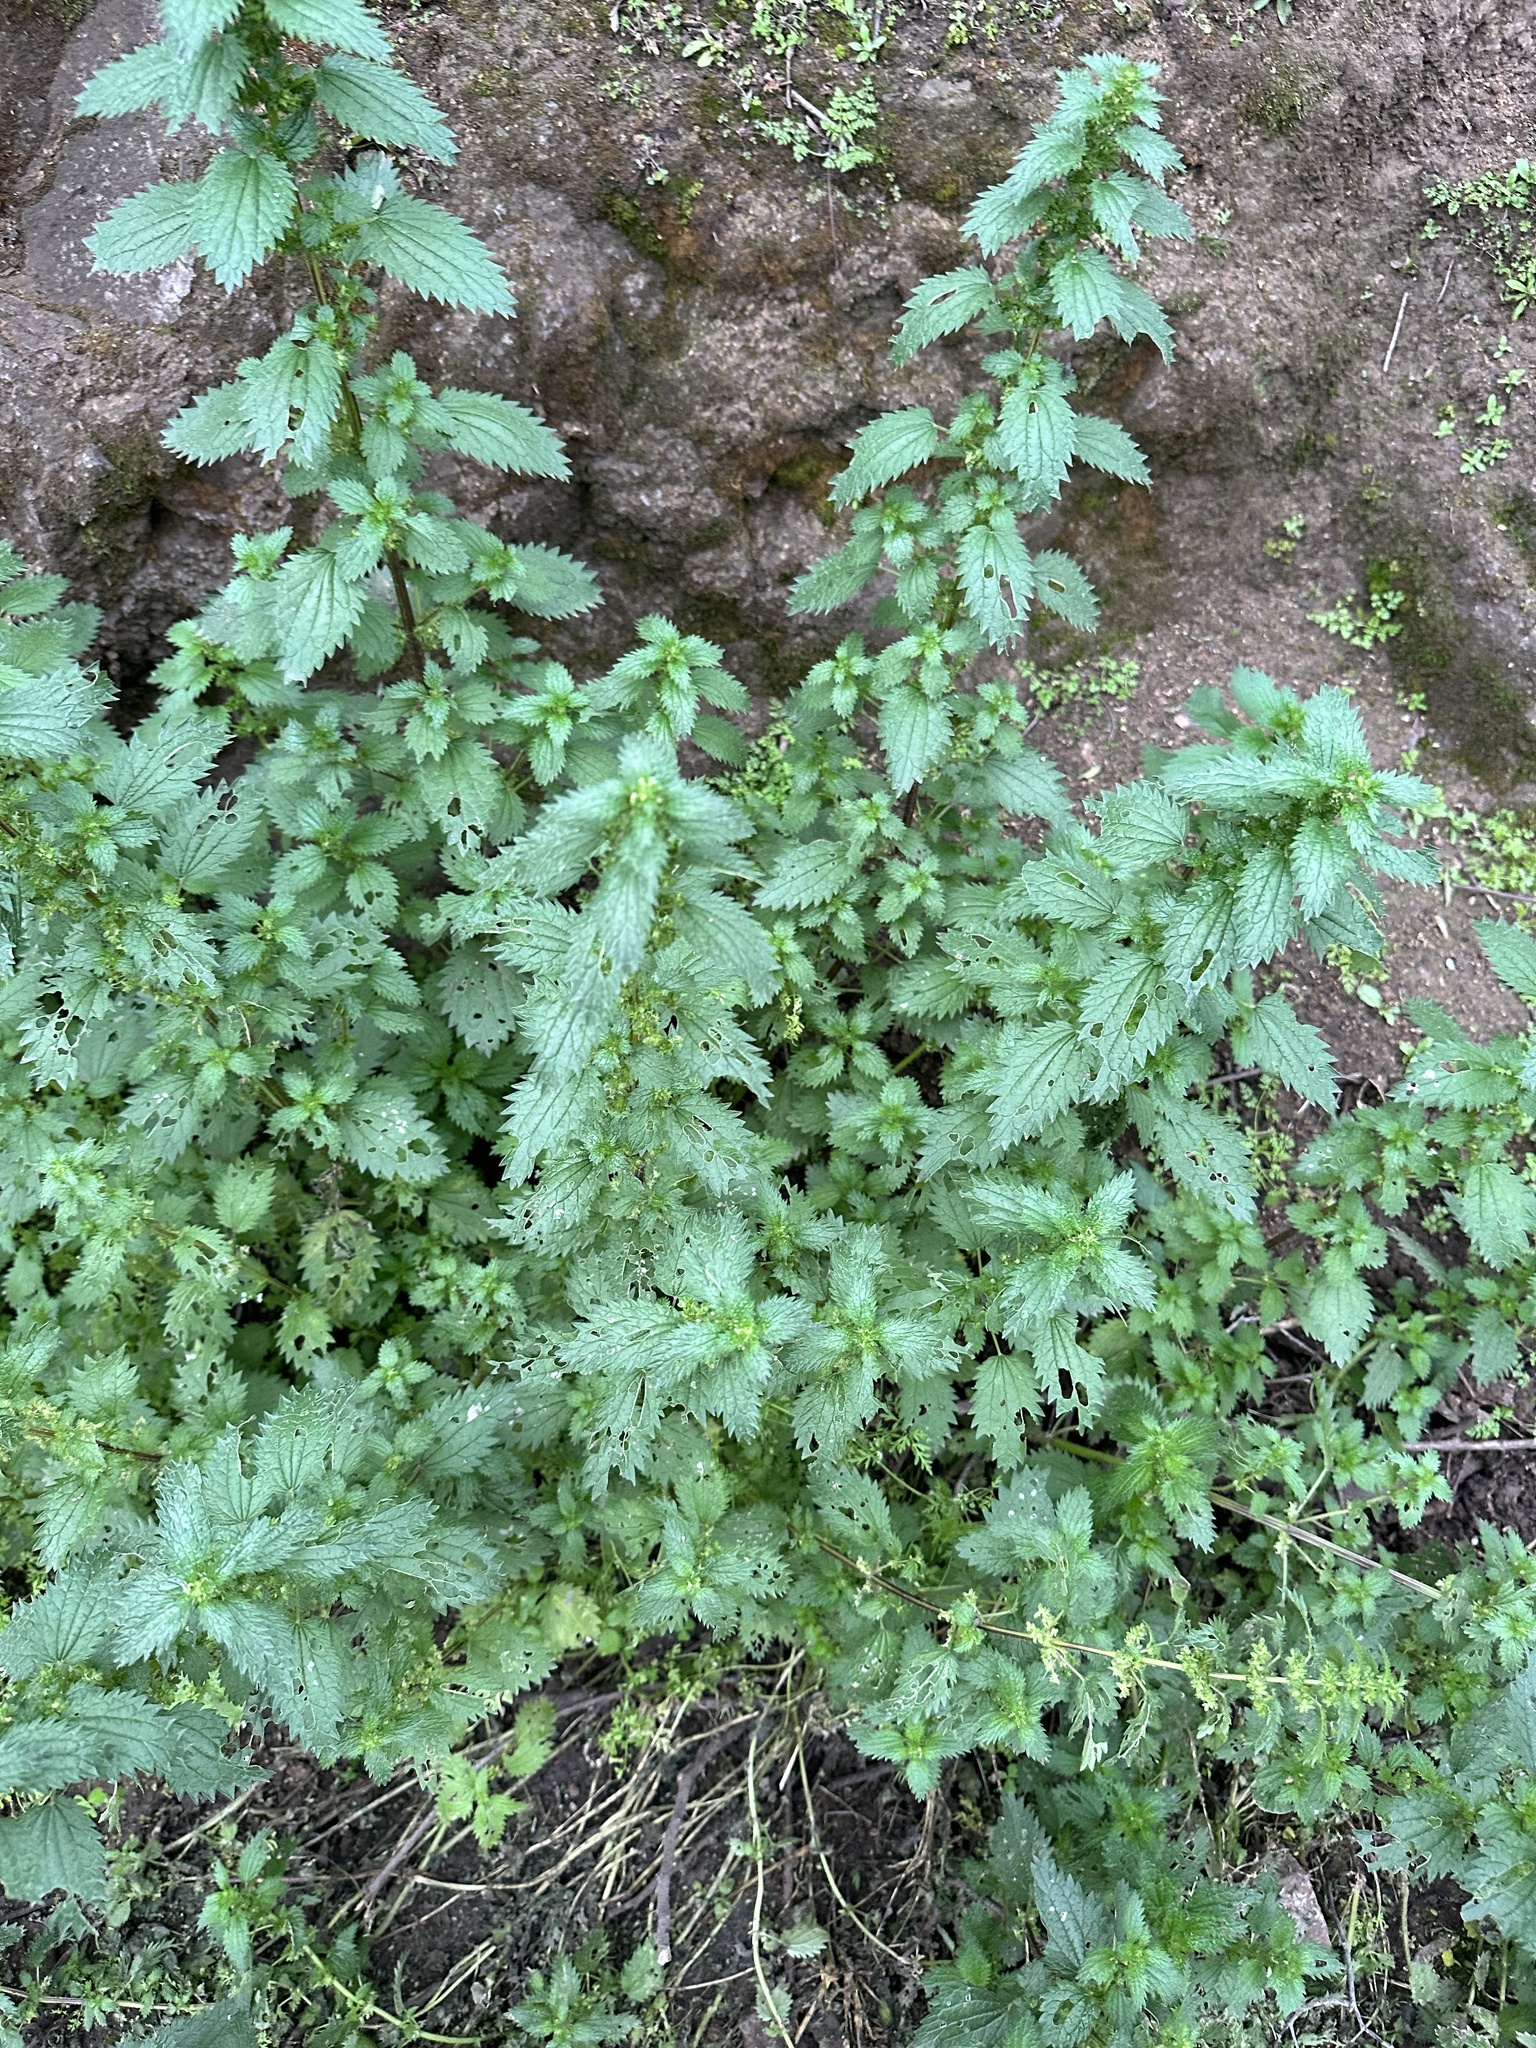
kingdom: Plantae
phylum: Tracheophyta
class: Magnoliopsida
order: Rosales
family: Urticaceae
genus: Urtica
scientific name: Urtica urens
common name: Dwarf nettle
